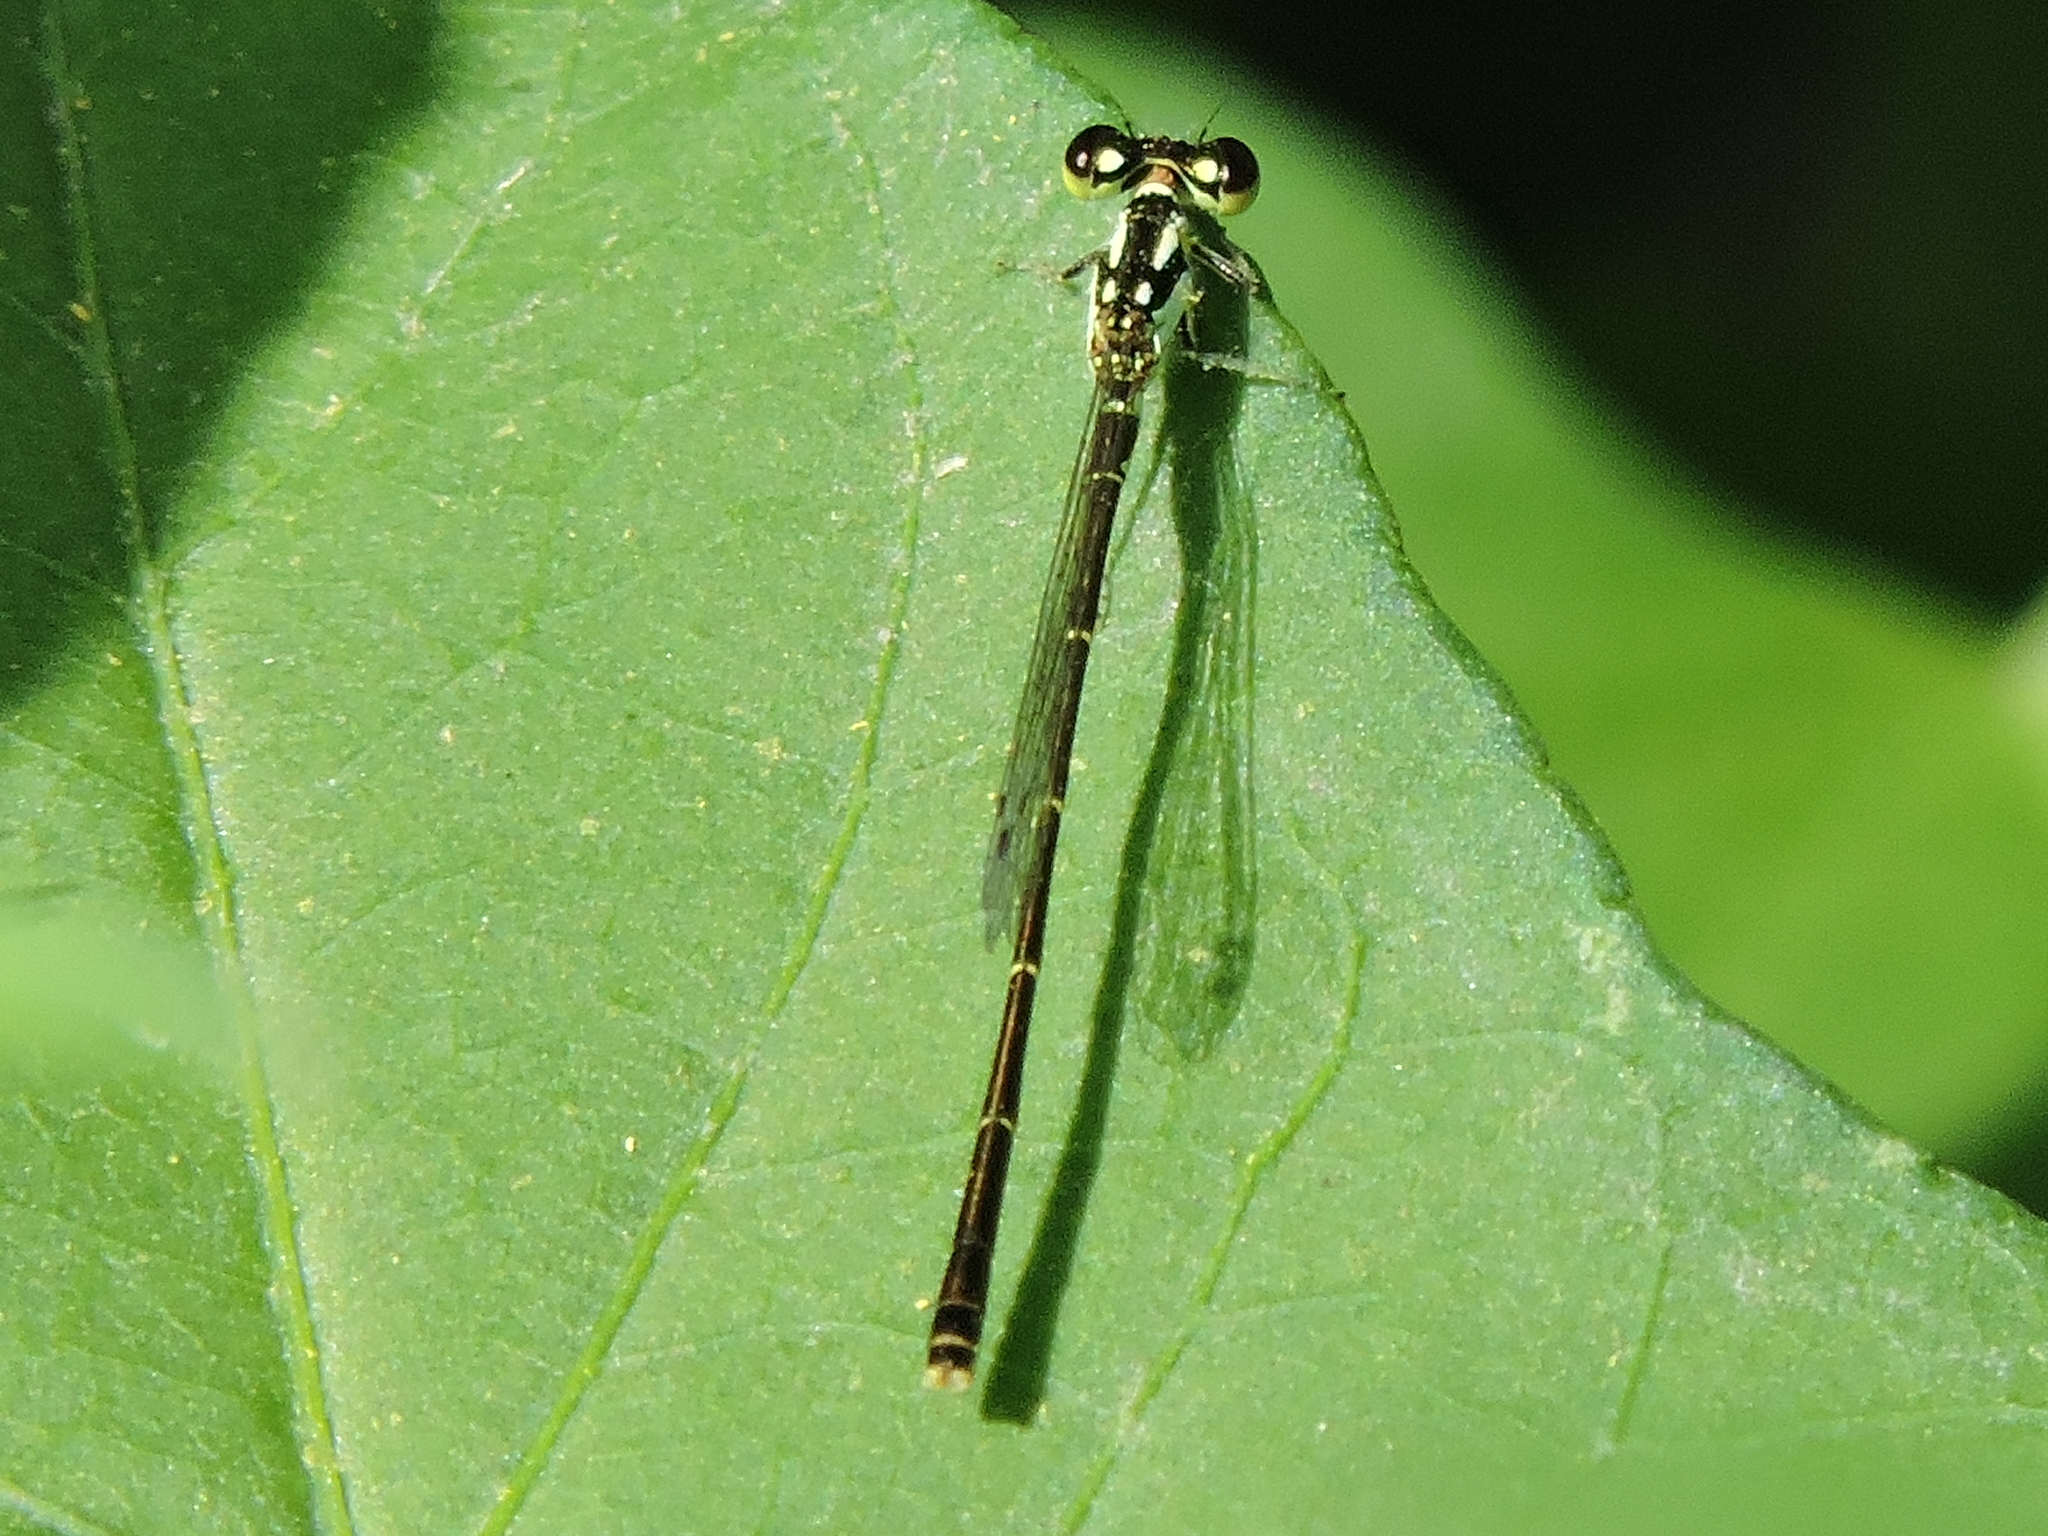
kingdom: Animalia
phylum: Arthropoda
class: Insecta
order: Odonata
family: Coenagrionidae
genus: Ischnura
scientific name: Ischnura posita
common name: Fragile forktail
